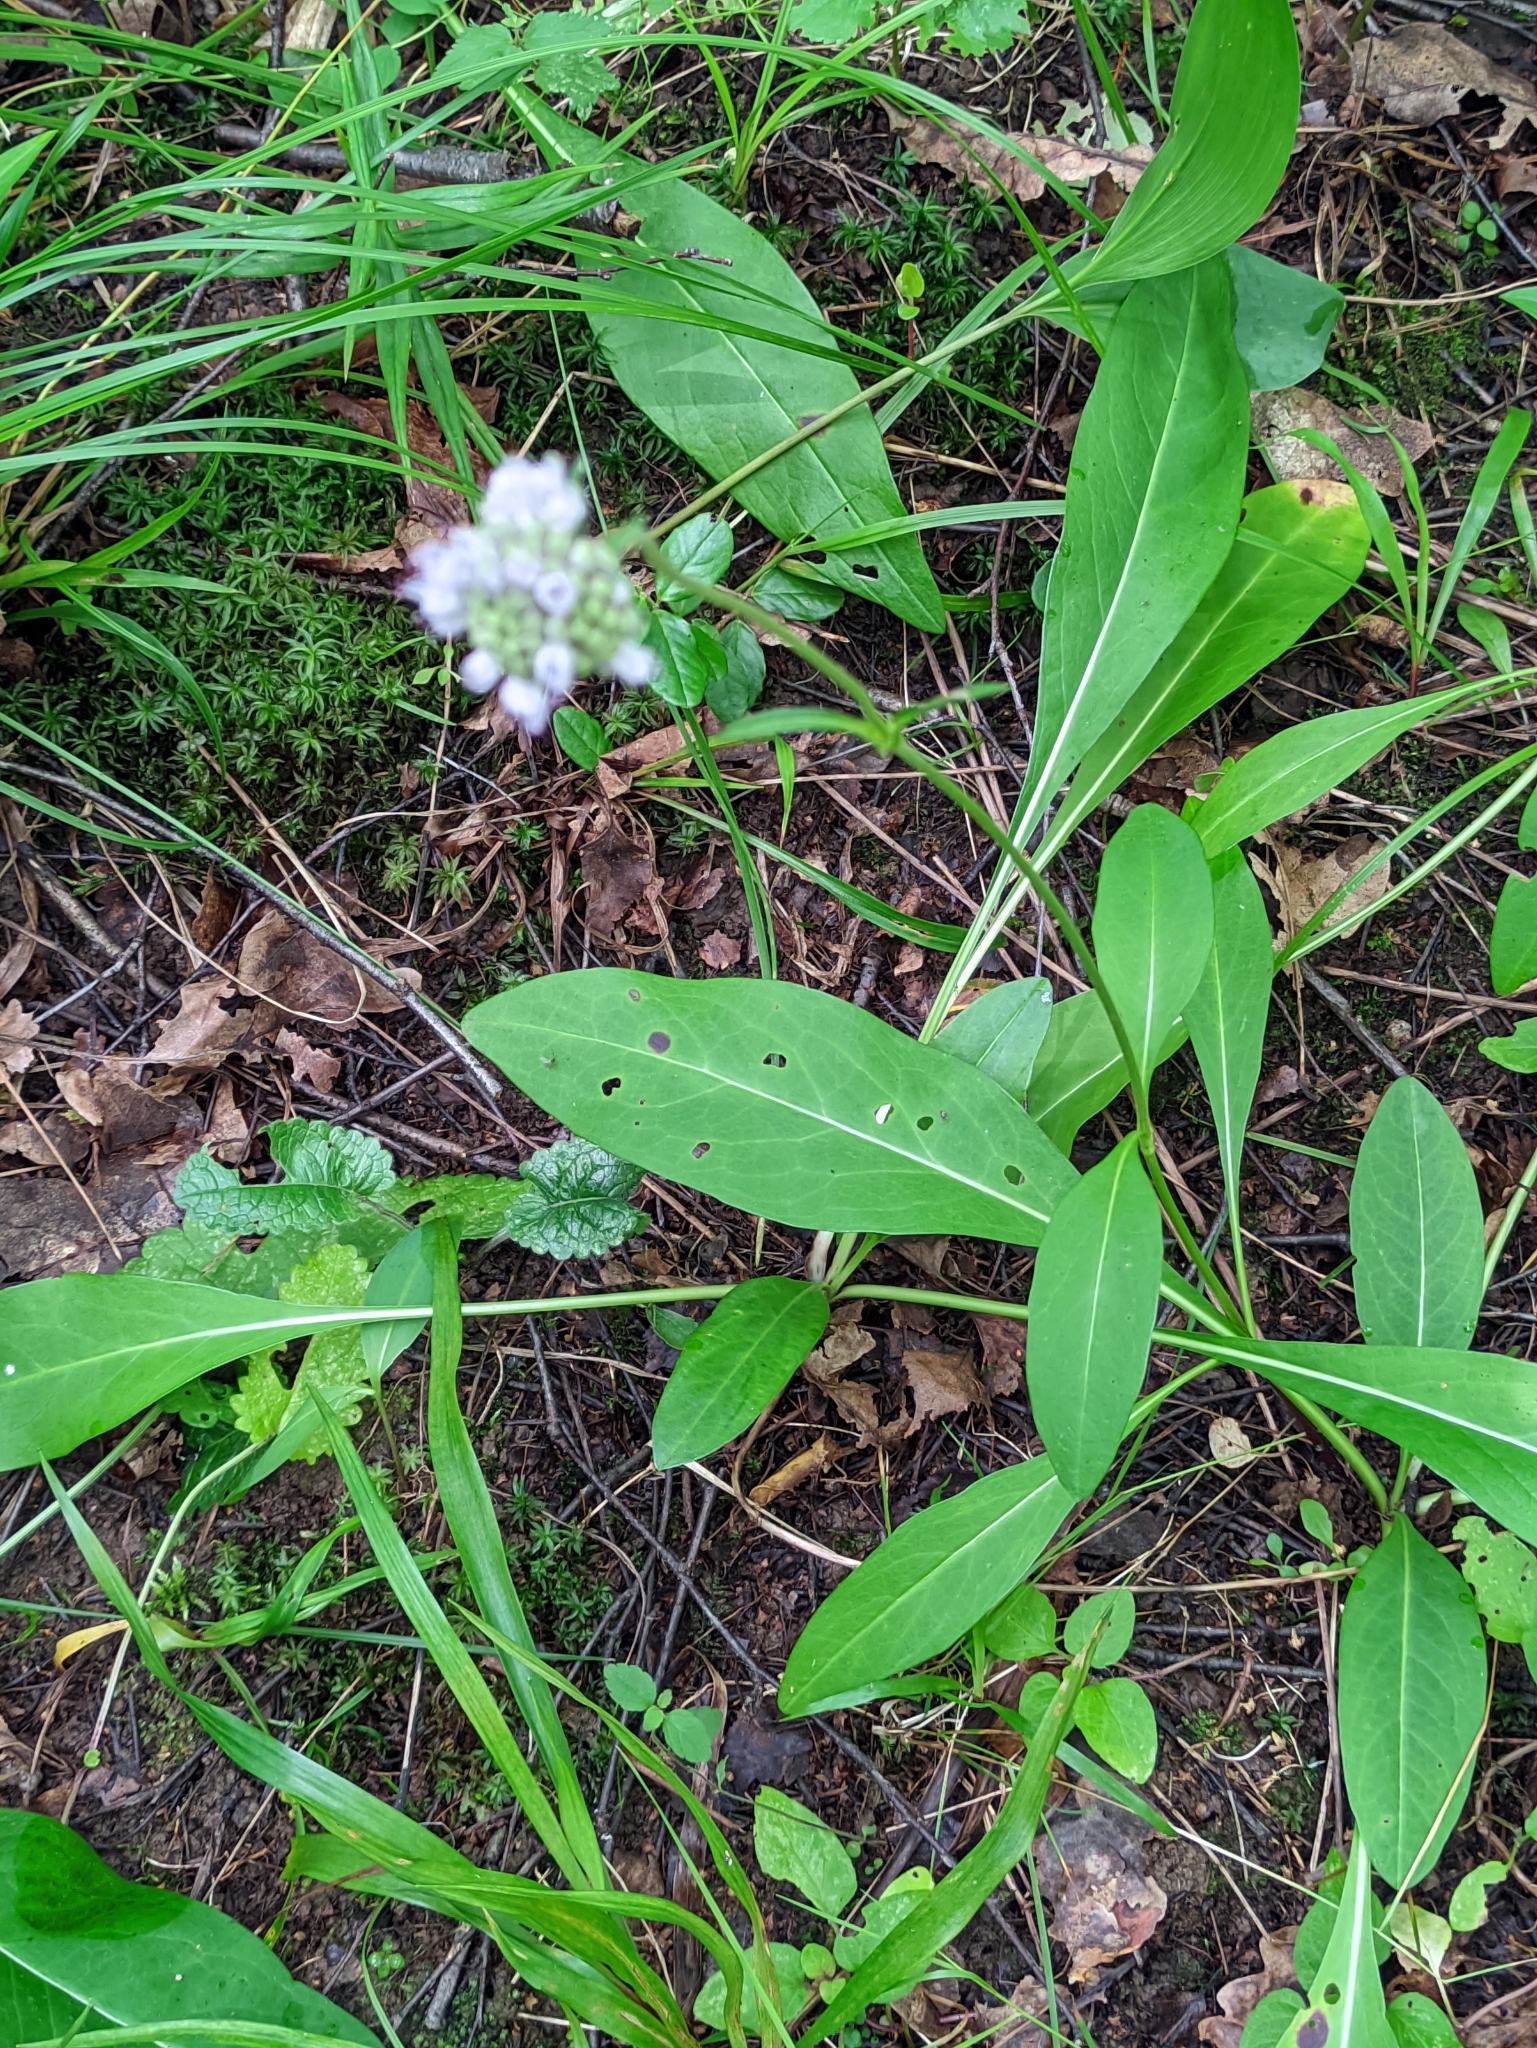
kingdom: Plantae
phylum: Tracheophyta
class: Magnoliopsida
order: Dipsacales
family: Caprifoliaceae
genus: Succisa
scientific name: Succisa pratensis
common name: Devil's-bit
